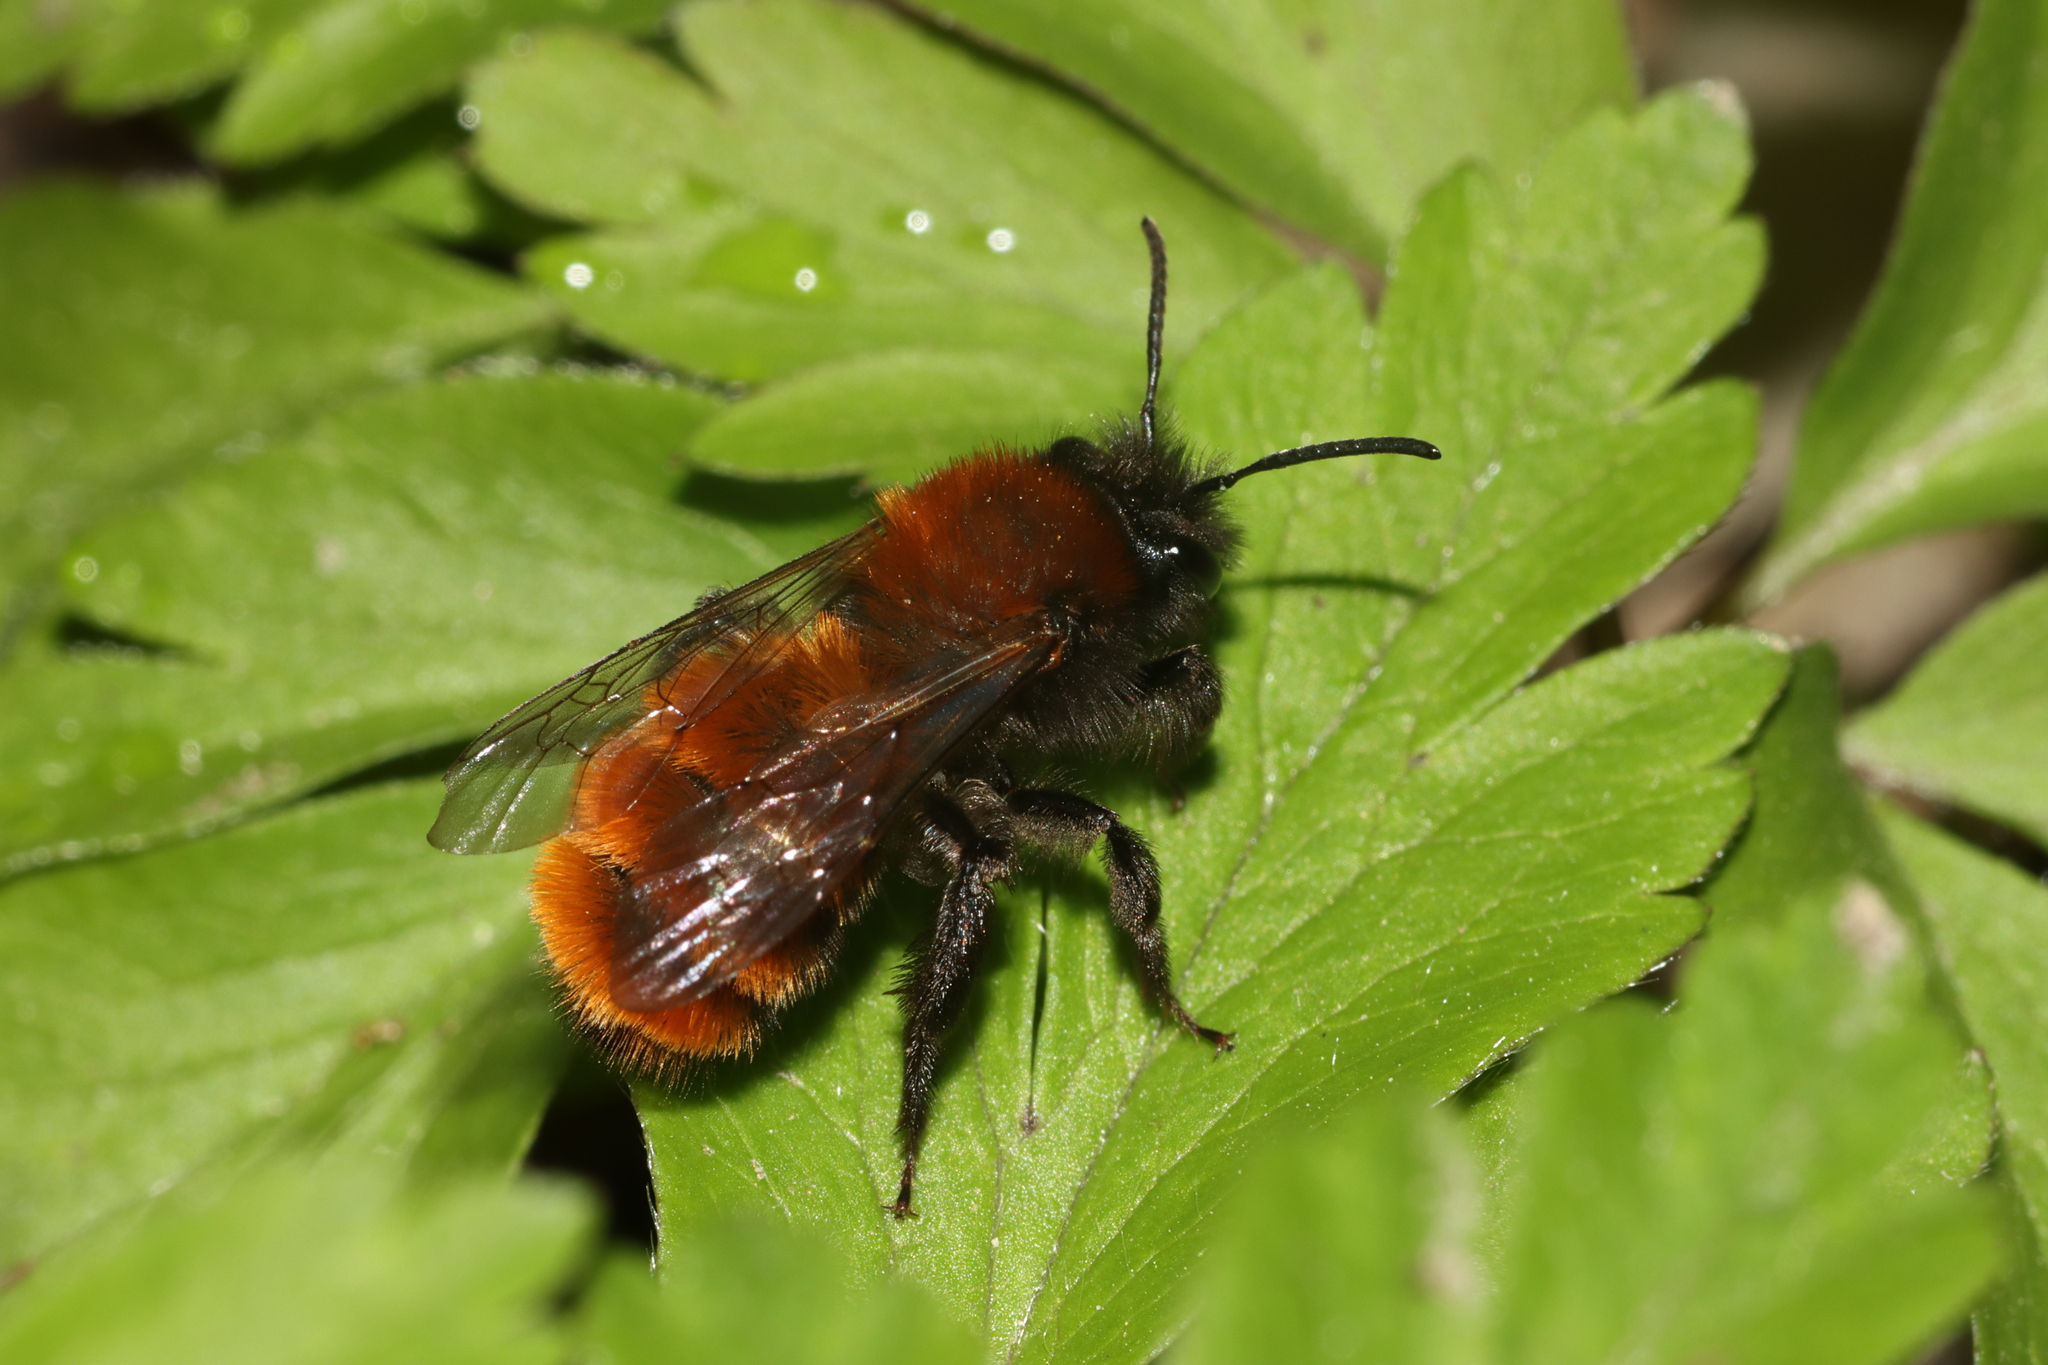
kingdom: Animalia
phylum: Arthropoda
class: Insecta
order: Hymenoptera
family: Andrenidae
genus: Andrena
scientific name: Andrena fulva
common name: Tawny mining bee
